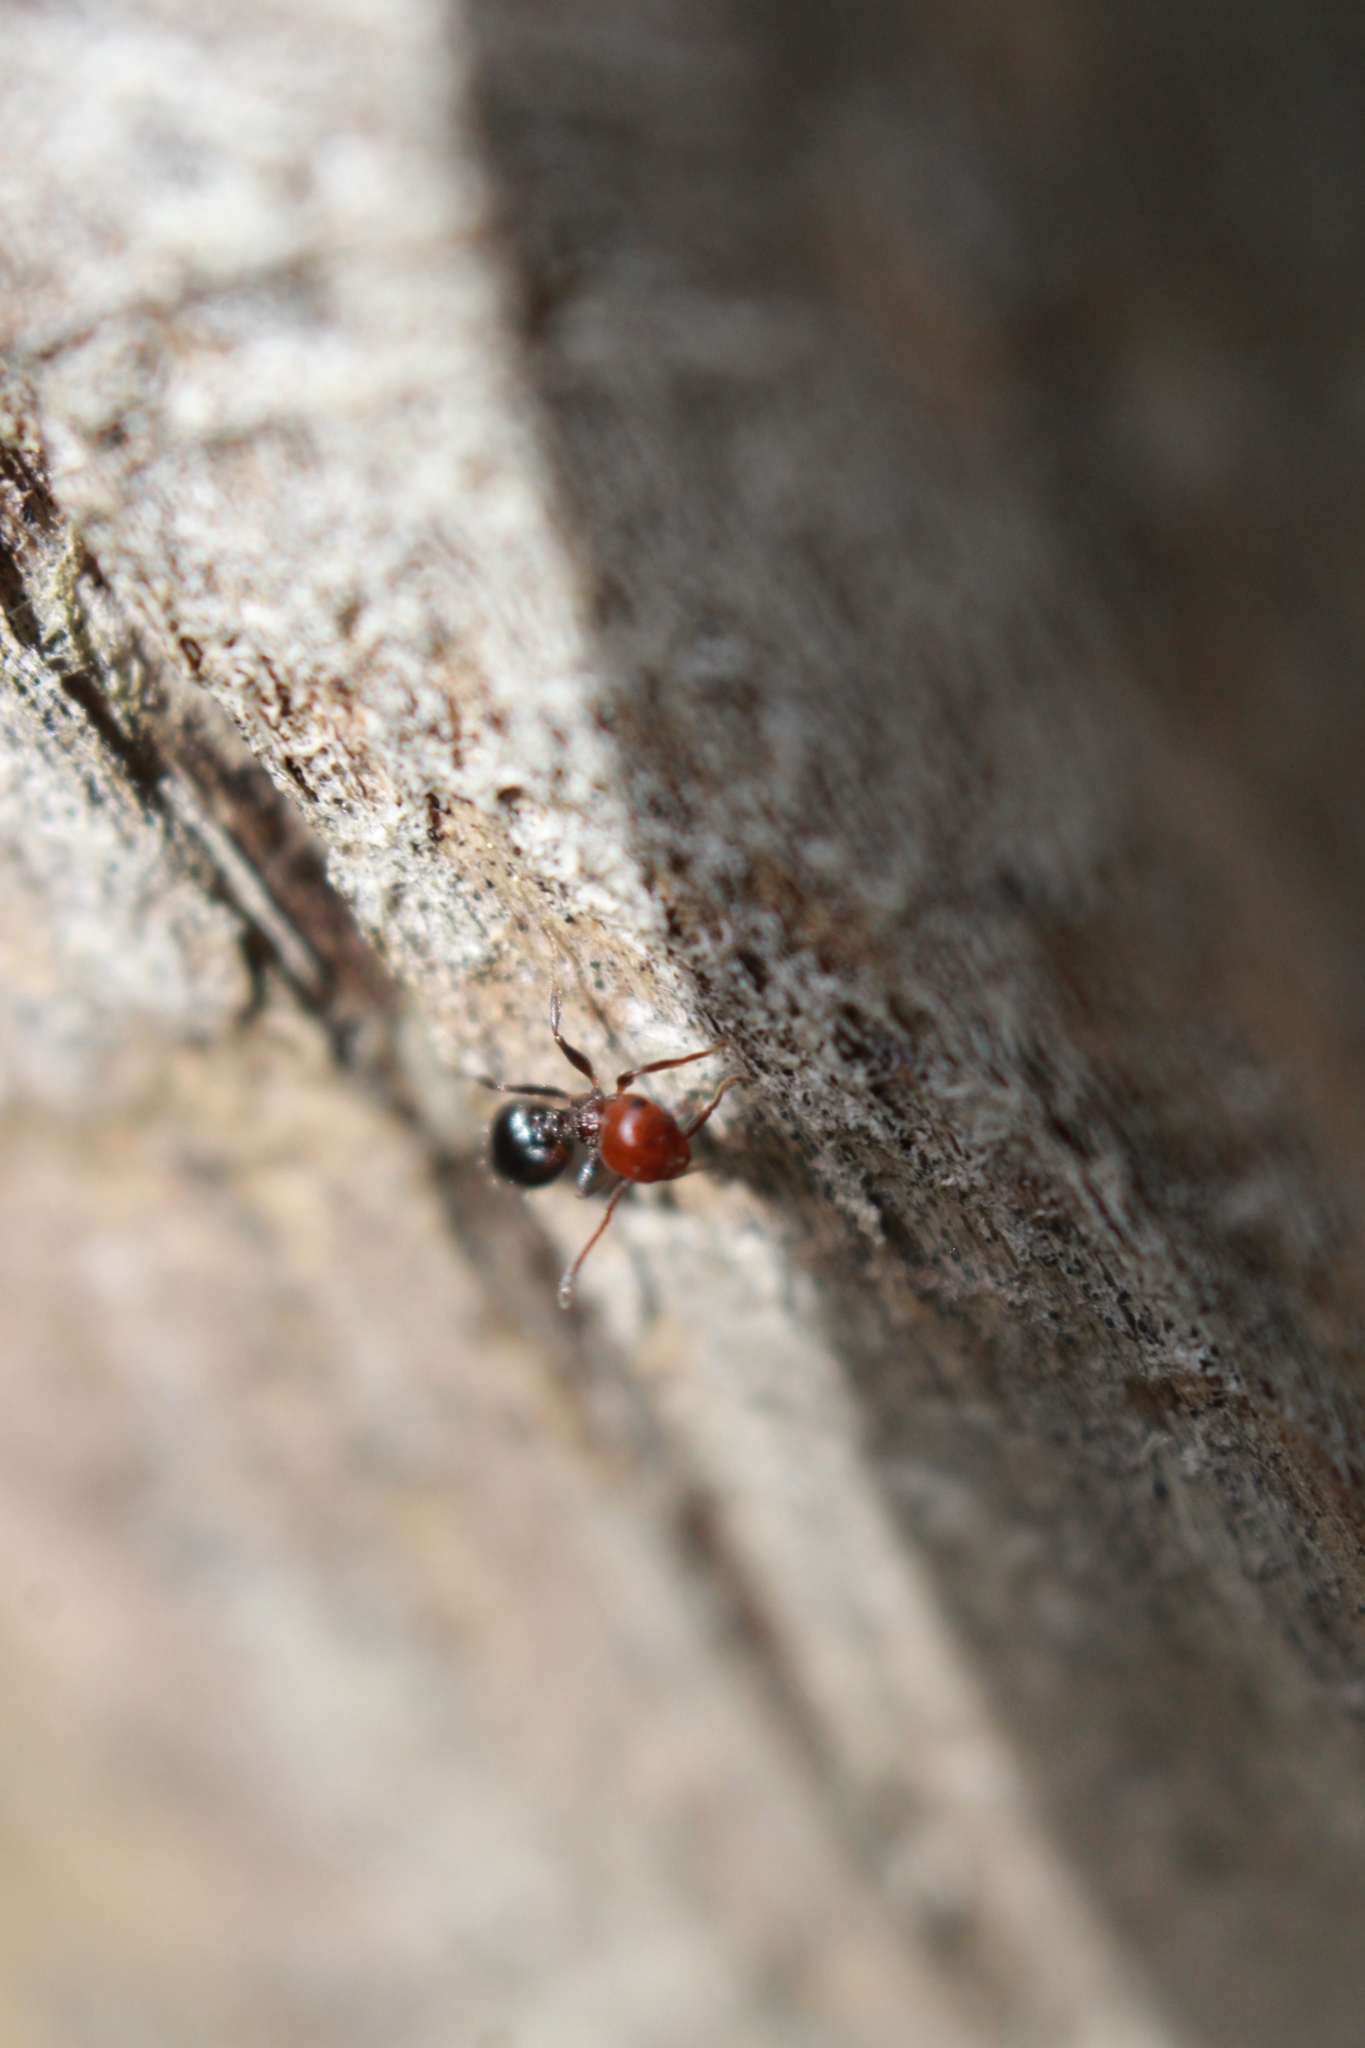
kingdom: Animalia
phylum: Arthropoda
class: Insecta
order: Hymenoptera
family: Formicidae
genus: Crematogaster
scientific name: Crematogaster scutellaris
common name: Fourmi du liège
